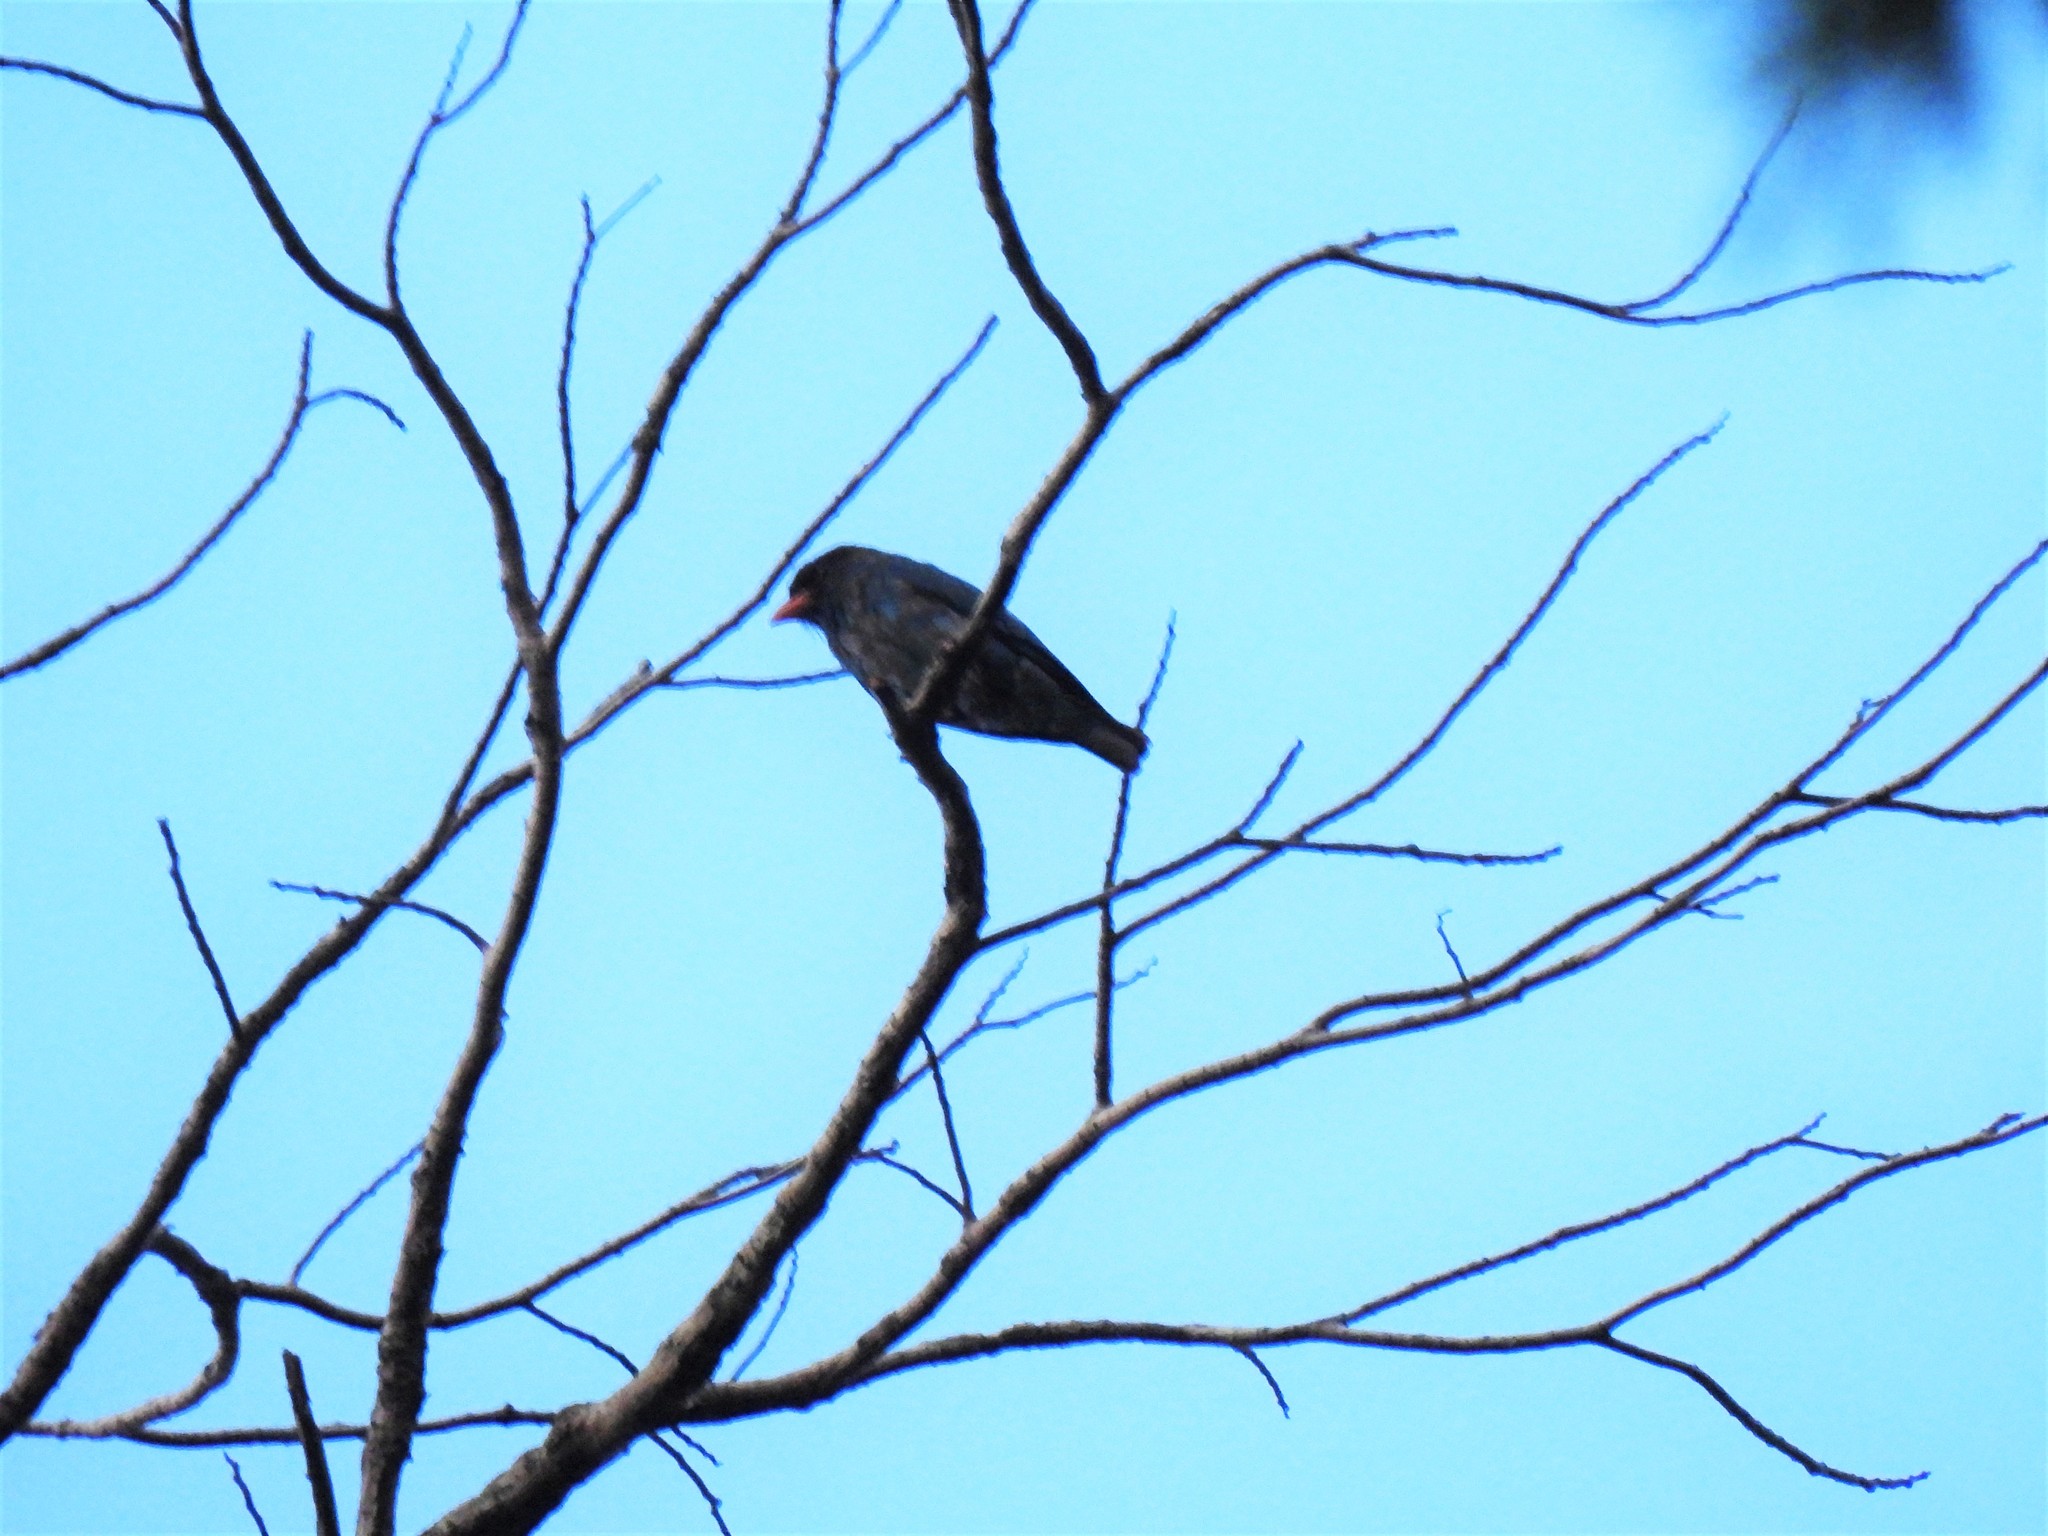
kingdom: Animalia
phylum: Chordata
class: Aves
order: Coraciiformes
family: Coraciidae
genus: Eurystomus
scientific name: Eurystomus orientalis
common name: Oriental dollarbird
